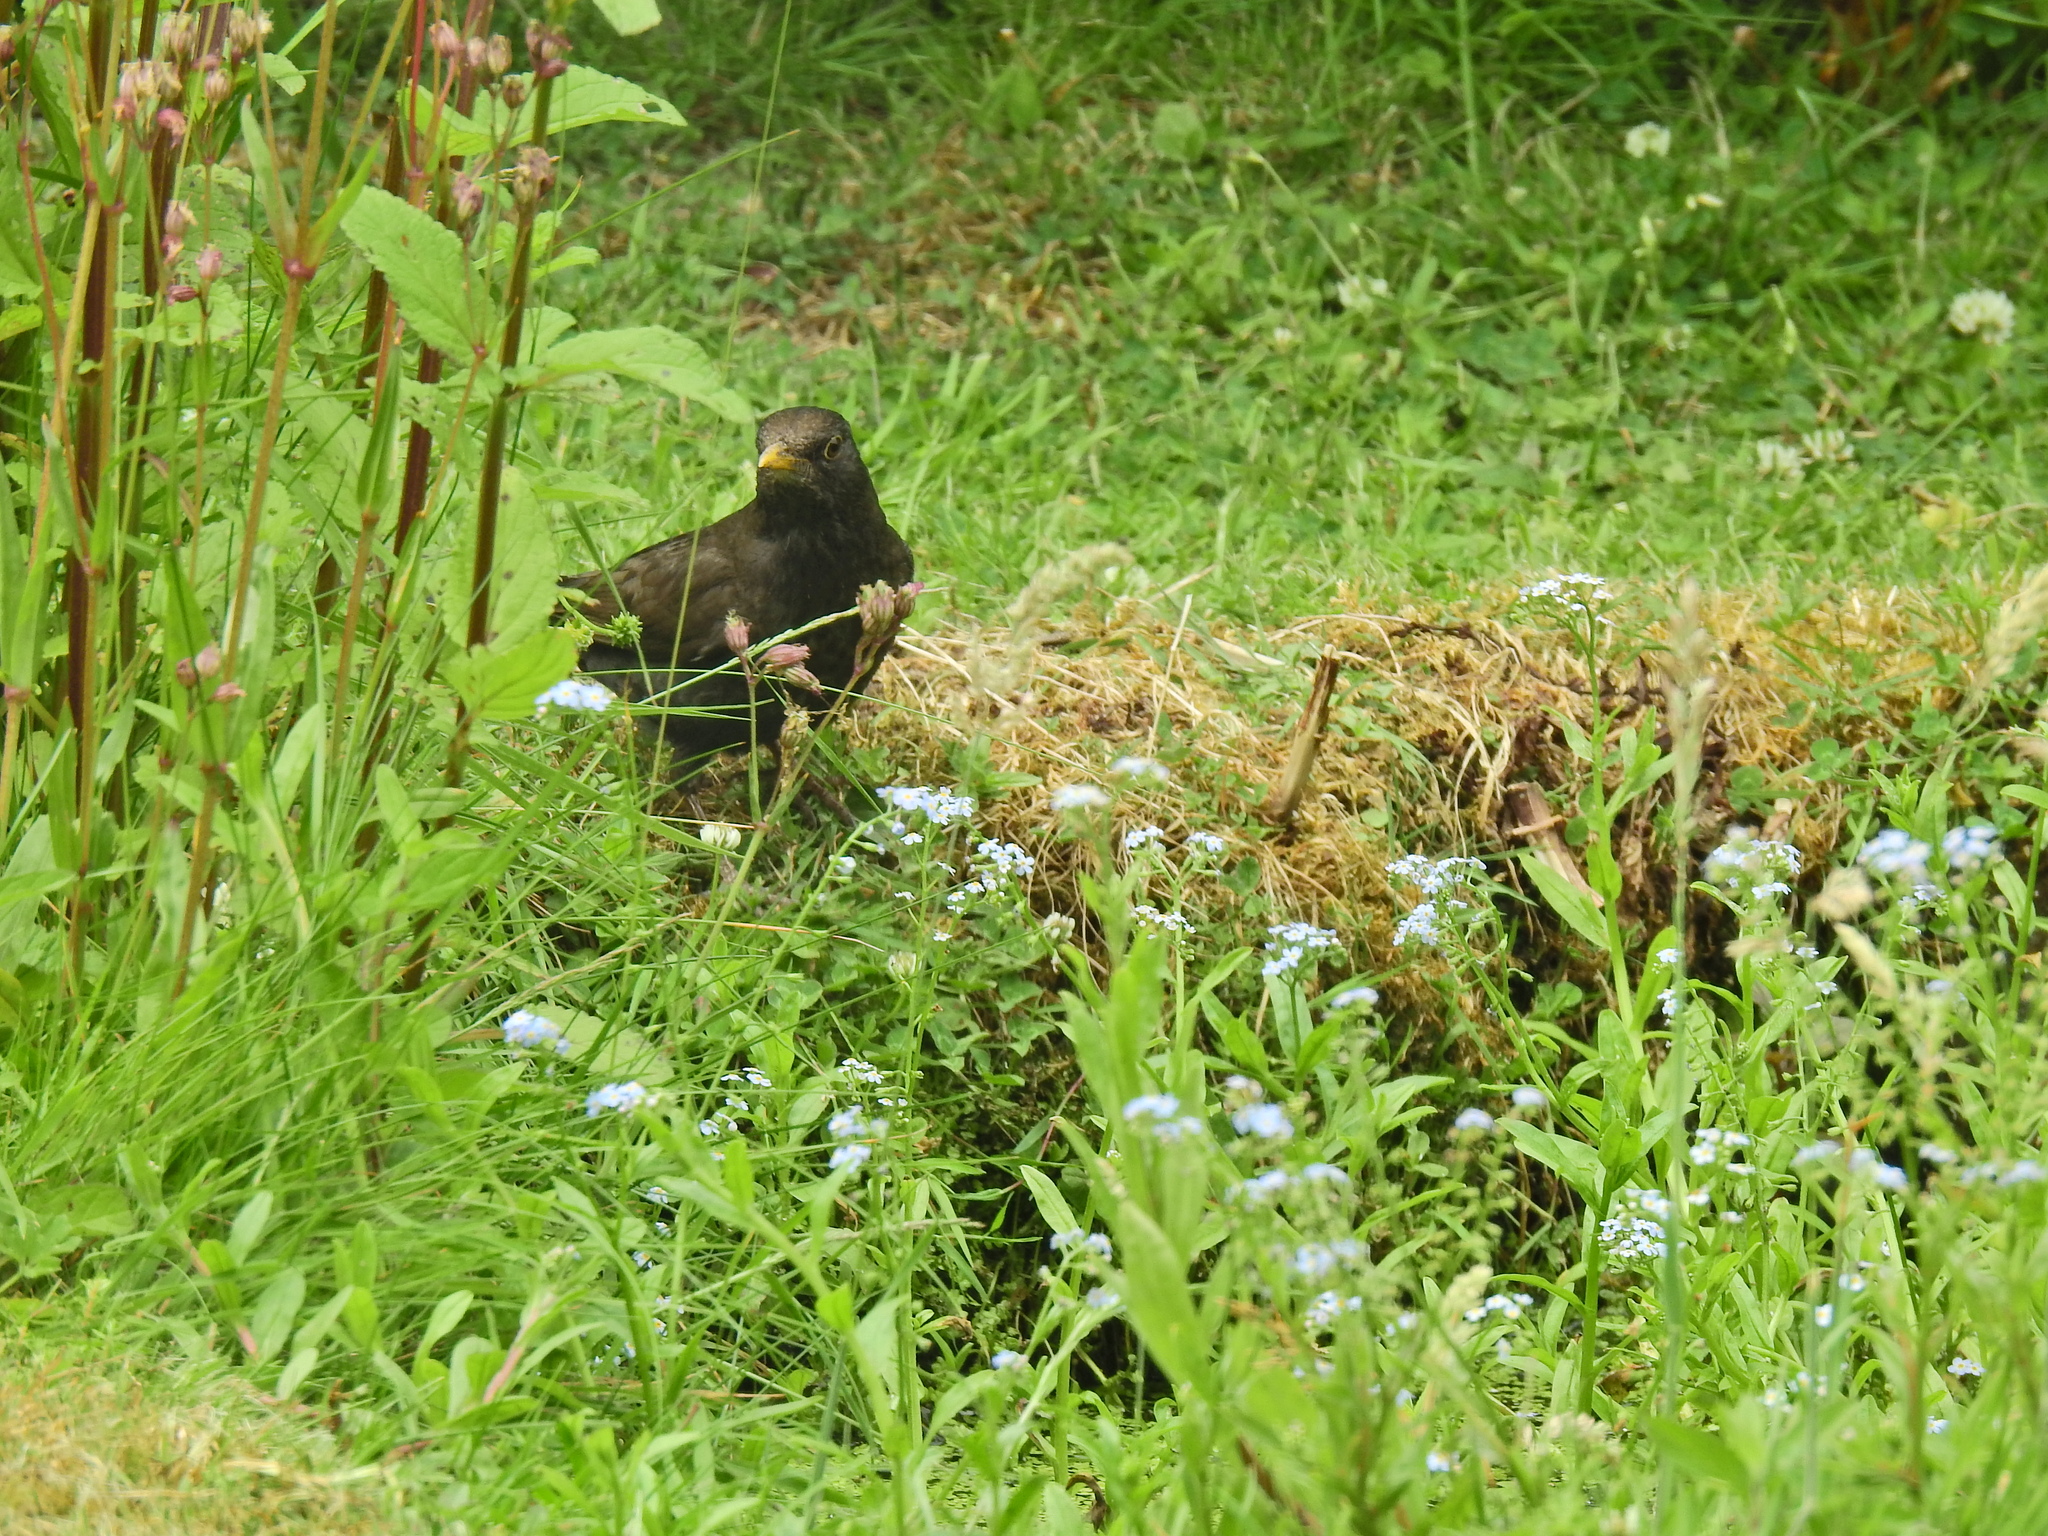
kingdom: Animalia
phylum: Chordata
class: Aves
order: Passeriformes
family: Turdidae
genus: Turdus
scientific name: Turdus merula
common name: Common blackbird
